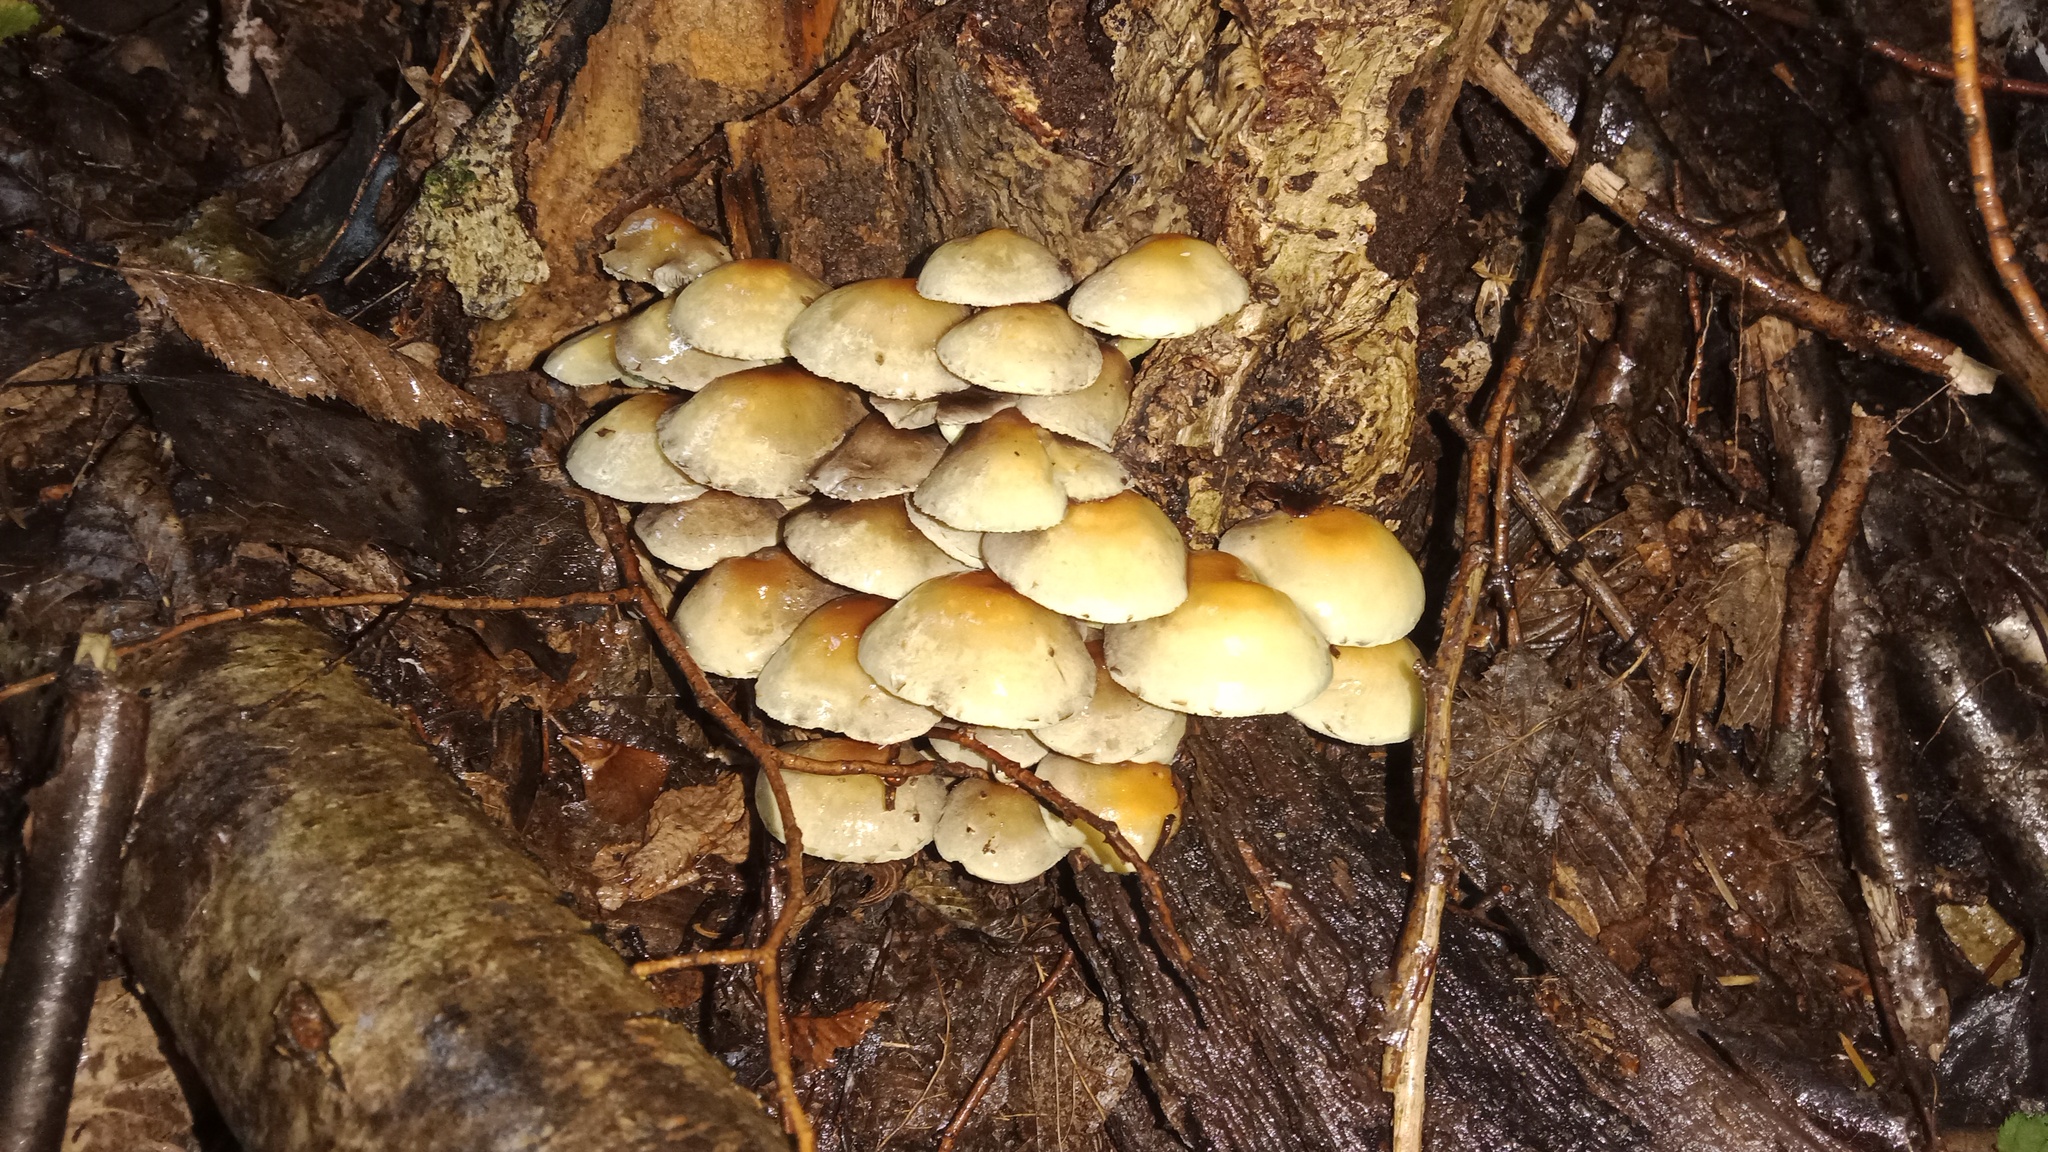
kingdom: Fungi
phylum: Basidiomycota
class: Agaricomycetes
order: Agaricales
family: Strophariaceae
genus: Hypholoma
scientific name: Hypholoma fasciculare
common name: Sulphur tuft
